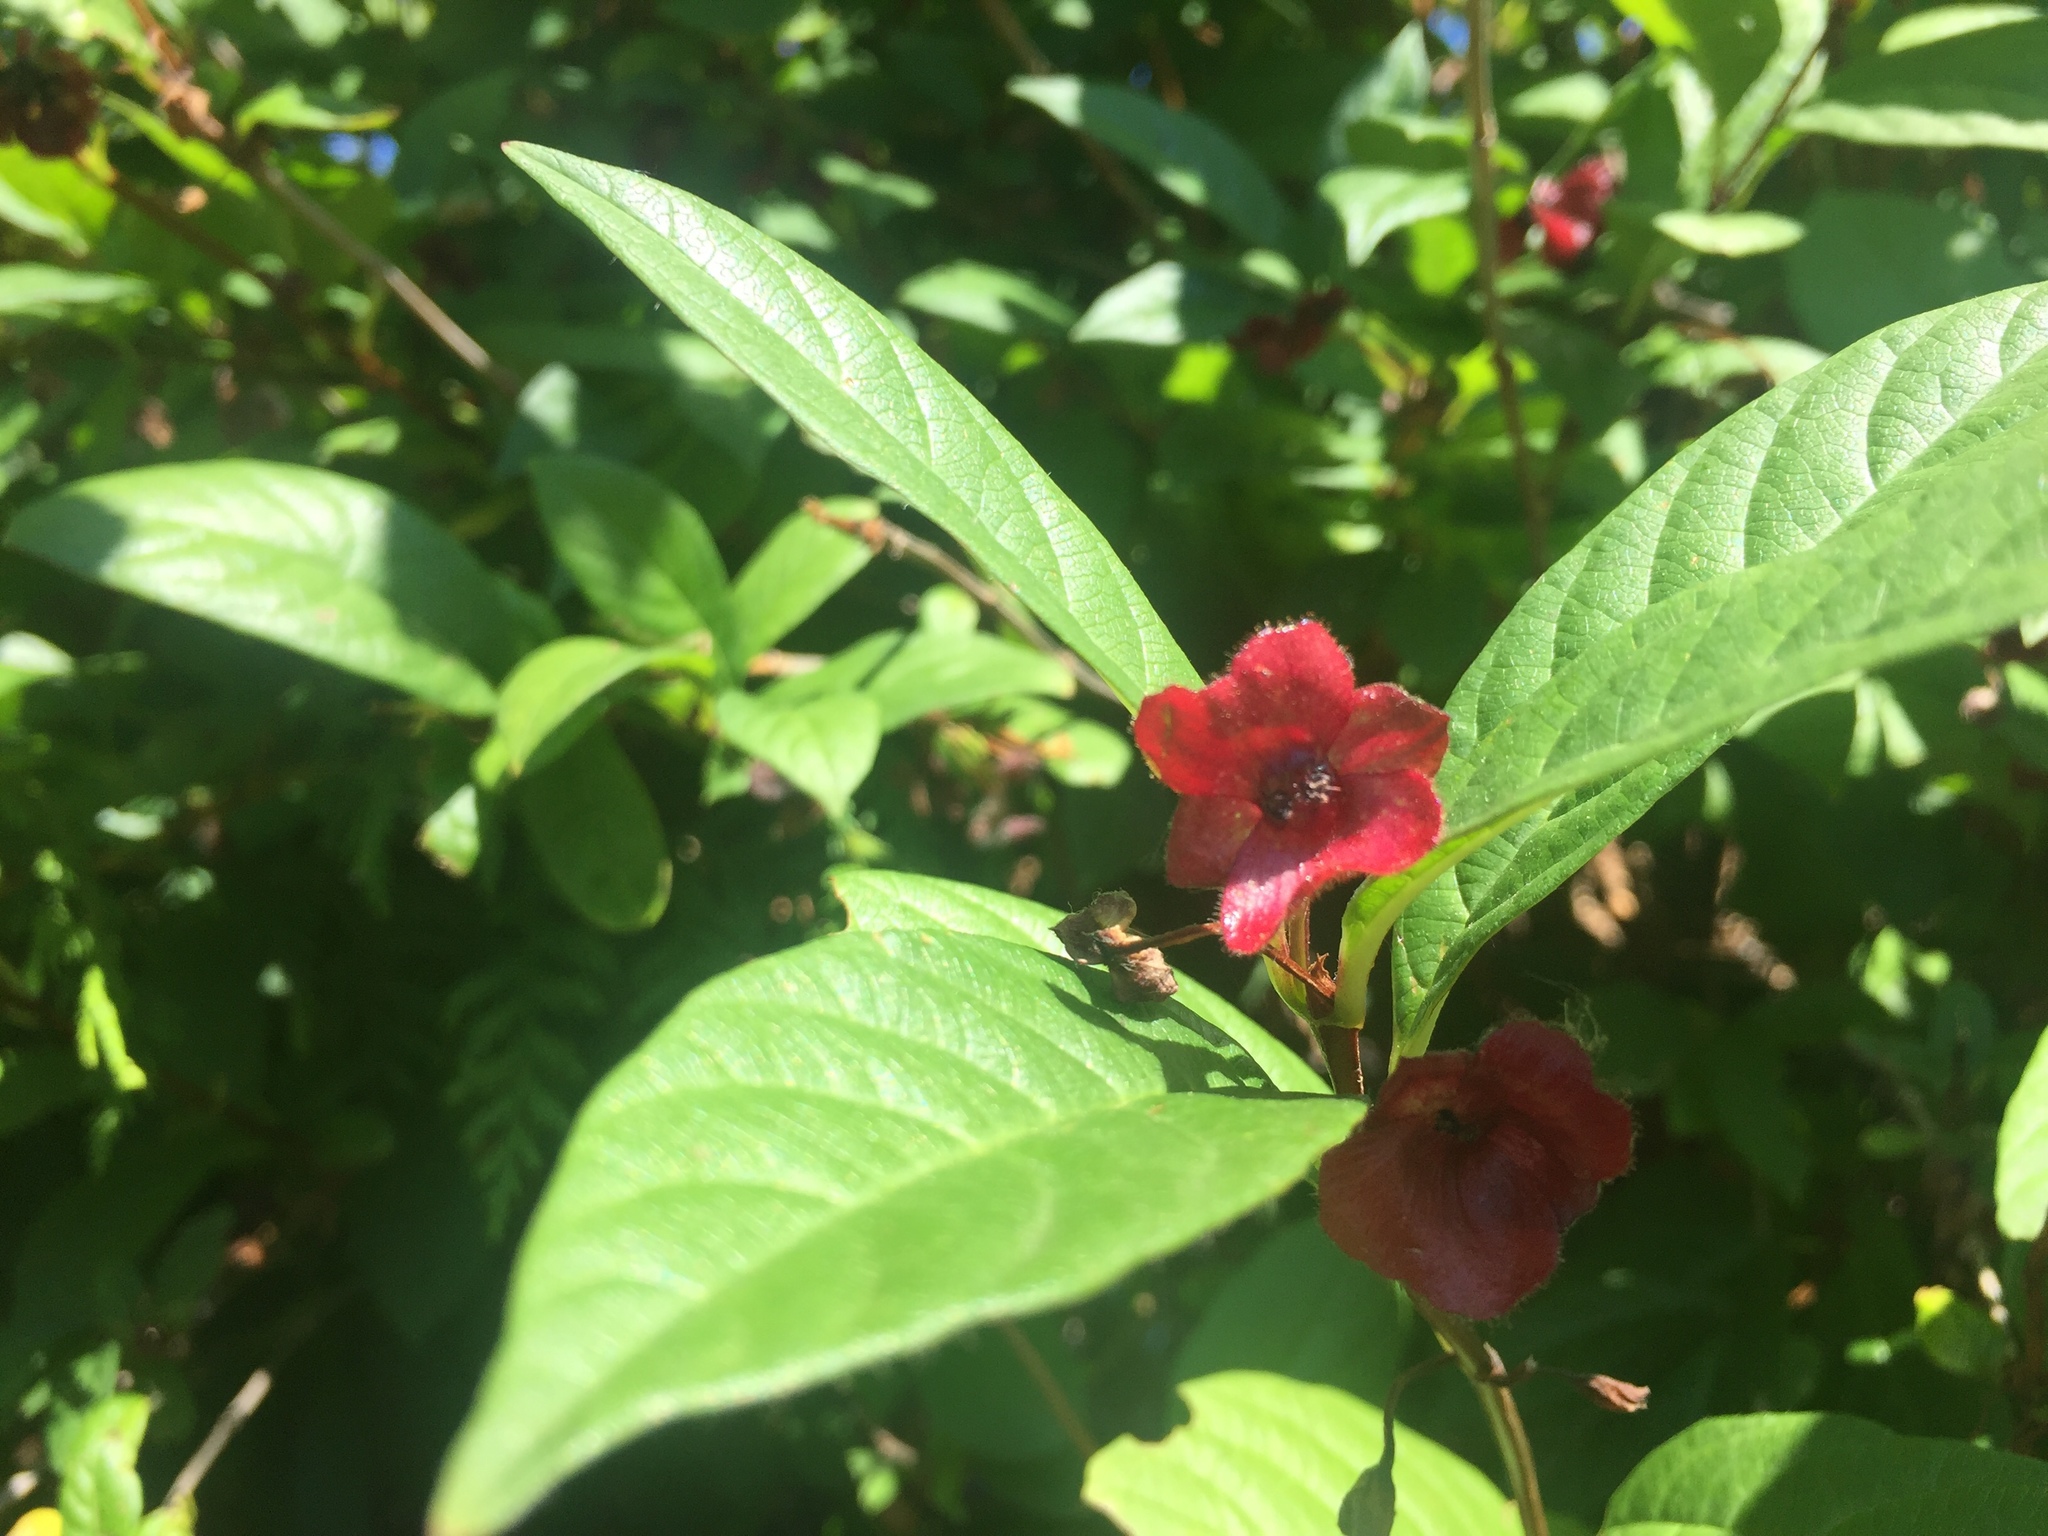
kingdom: Plantae
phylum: Tracheophyta
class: Magnoliopsida
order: Dipsacales
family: Caprifoliaceae
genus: Lonicera
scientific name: Lonicera involucrata
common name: Californian honeysuckle
